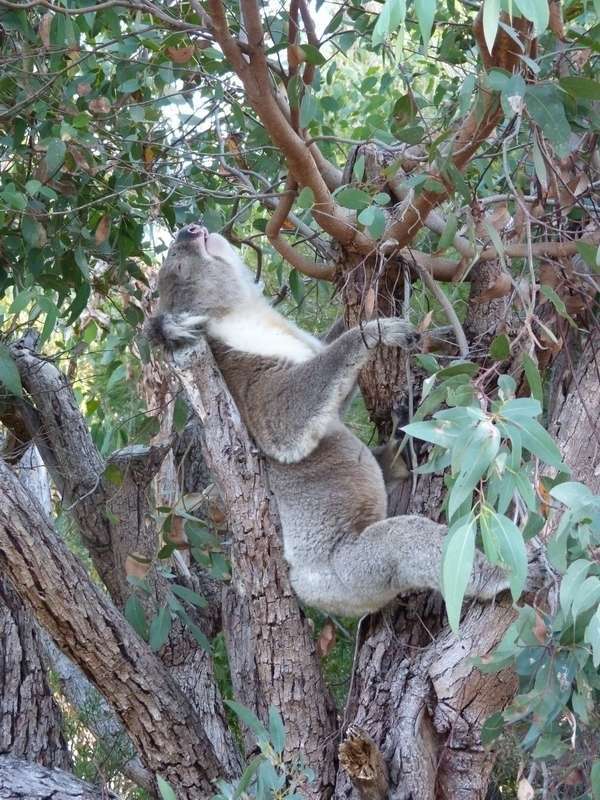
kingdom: Animalia
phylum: Chordata
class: Mammalia
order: Diprotodontia
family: Phascolarctidae
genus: Phascolarctos
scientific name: Phascolarctos cinereus
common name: Koala
